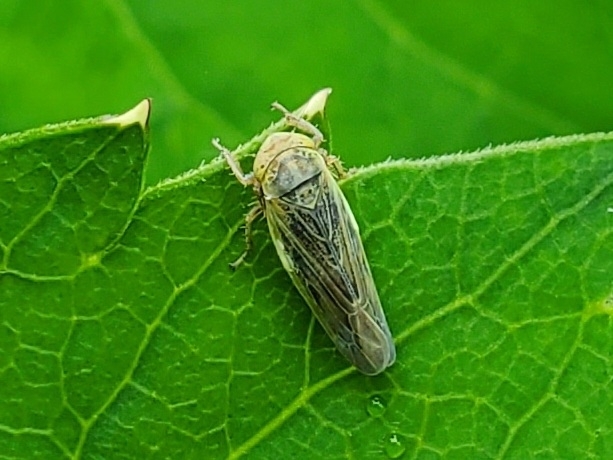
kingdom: Animalia
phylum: Arthropoda
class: Insecta
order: Hemiptera
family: Cicadellidae
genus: Thamnotettix
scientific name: Thamnotettix confinis
